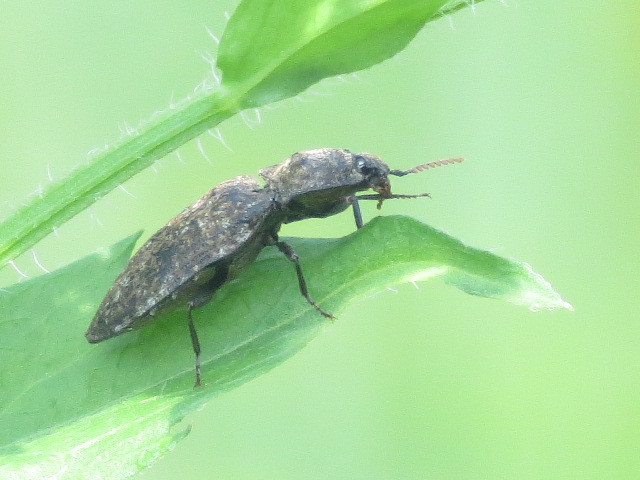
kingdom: Animalia
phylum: Arthropoda
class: Insecta
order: Coleoptera
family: Elateridae
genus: Agrypnus
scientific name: Agrypnus murinus
